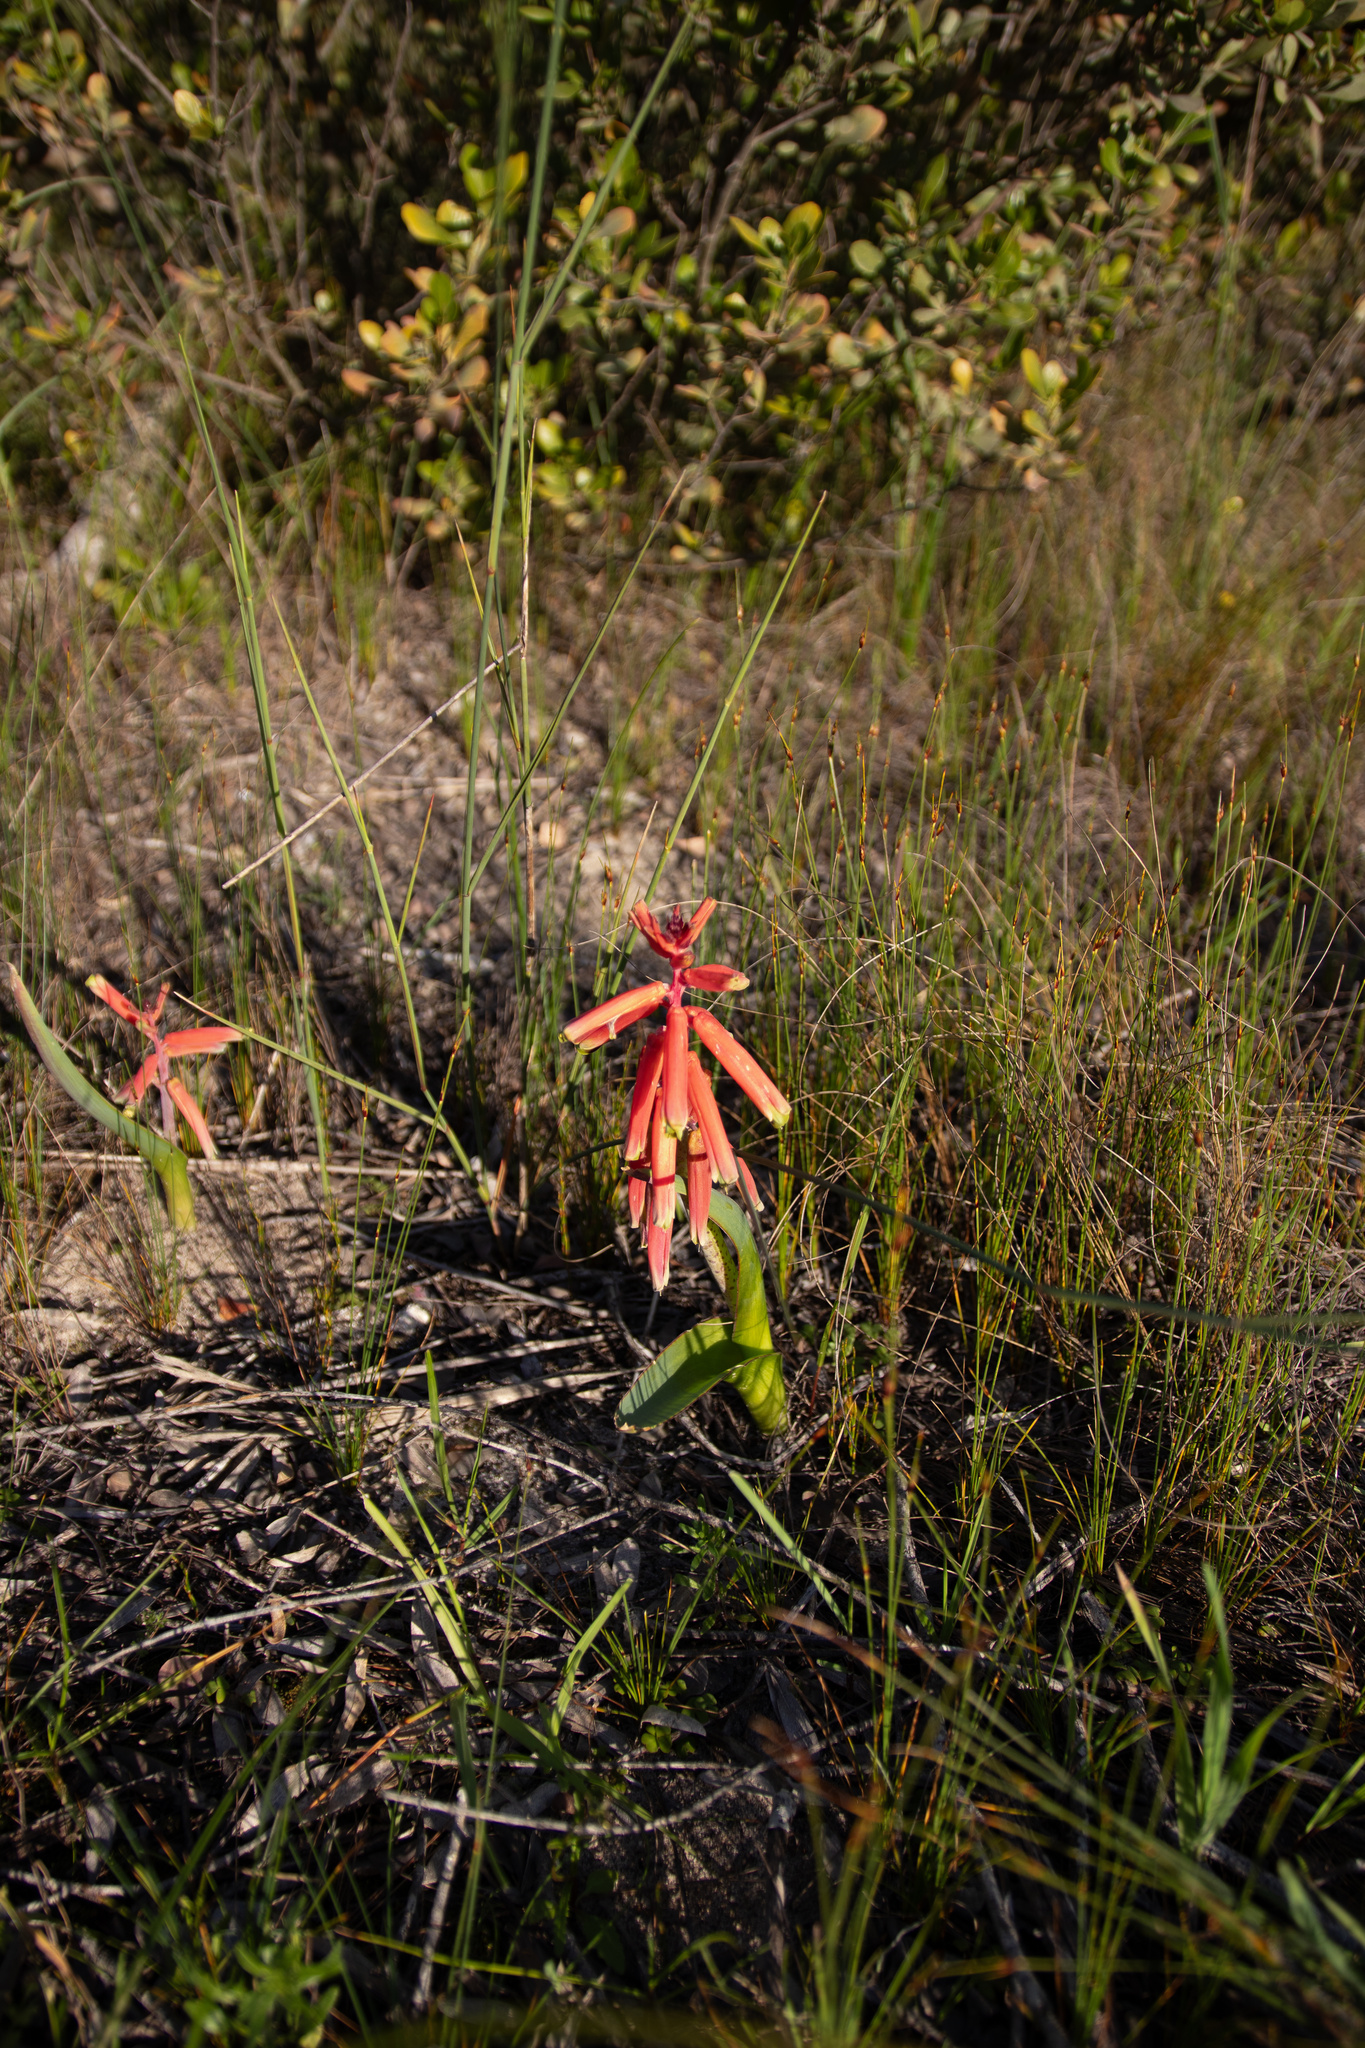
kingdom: Plantae
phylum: Tracheophyta
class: Liliopsida
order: Asparagales
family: Asparagaceae
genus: Lachenalia
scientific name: Lachenalia bulbifera
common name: Red lachenalia
